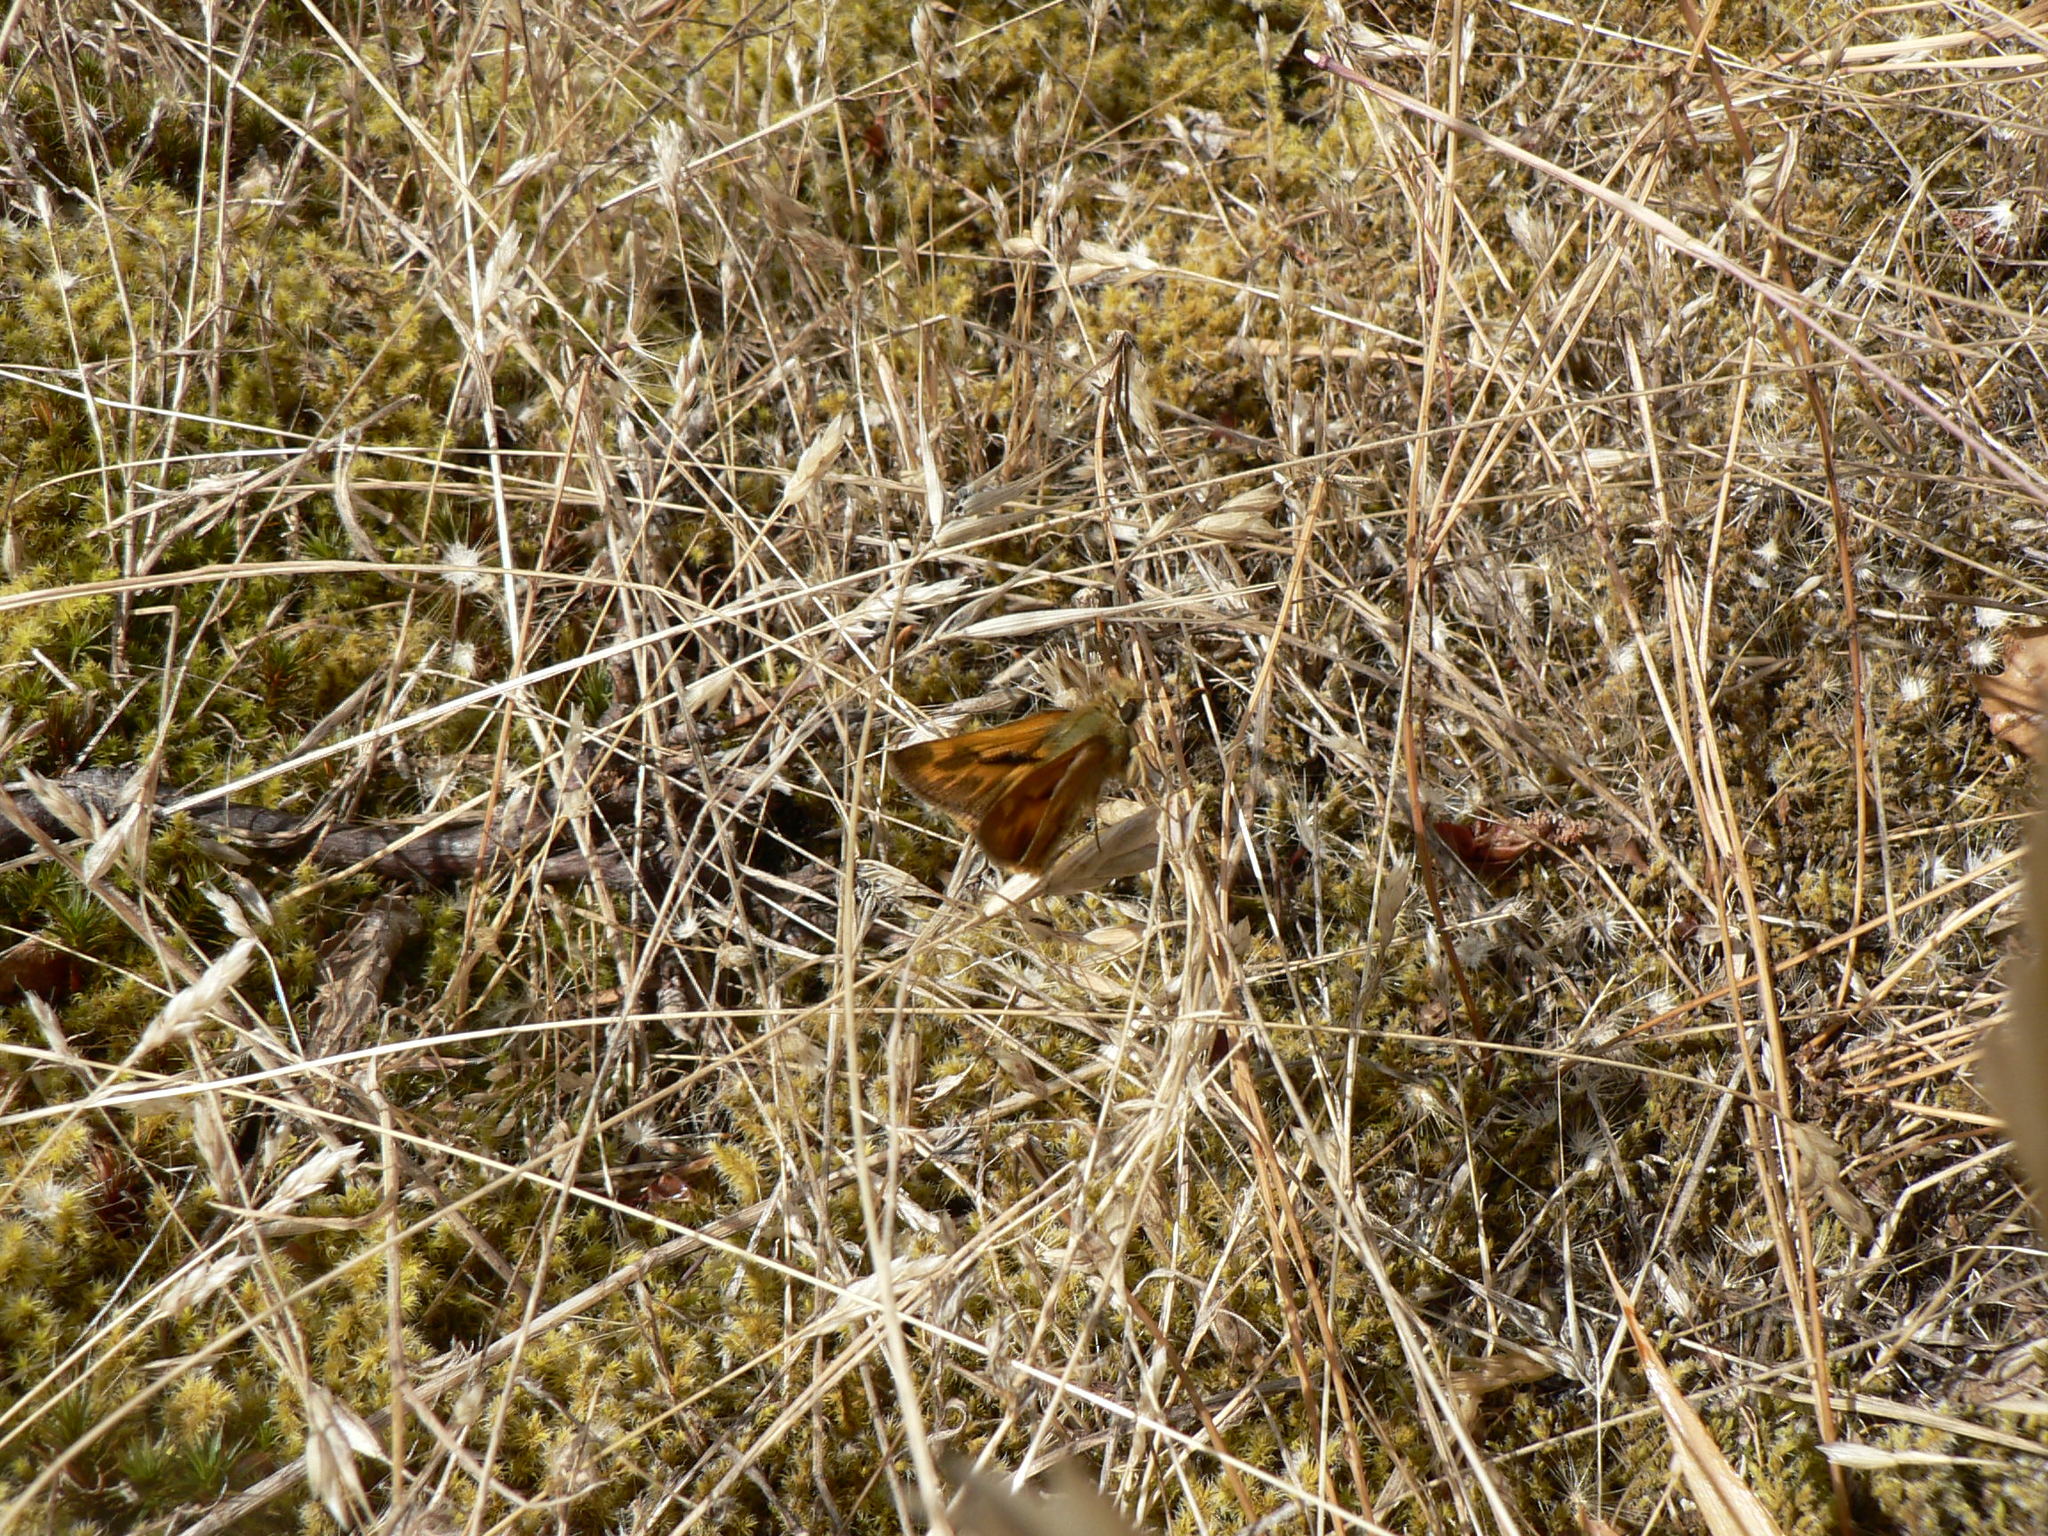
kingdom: Animalia
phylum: Arthropoda
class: Insecta
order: Lepidoptera
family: Hesperiidae
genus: Ochlodes
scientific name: Ochlodes sylvanoides
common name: Woodland skipper
